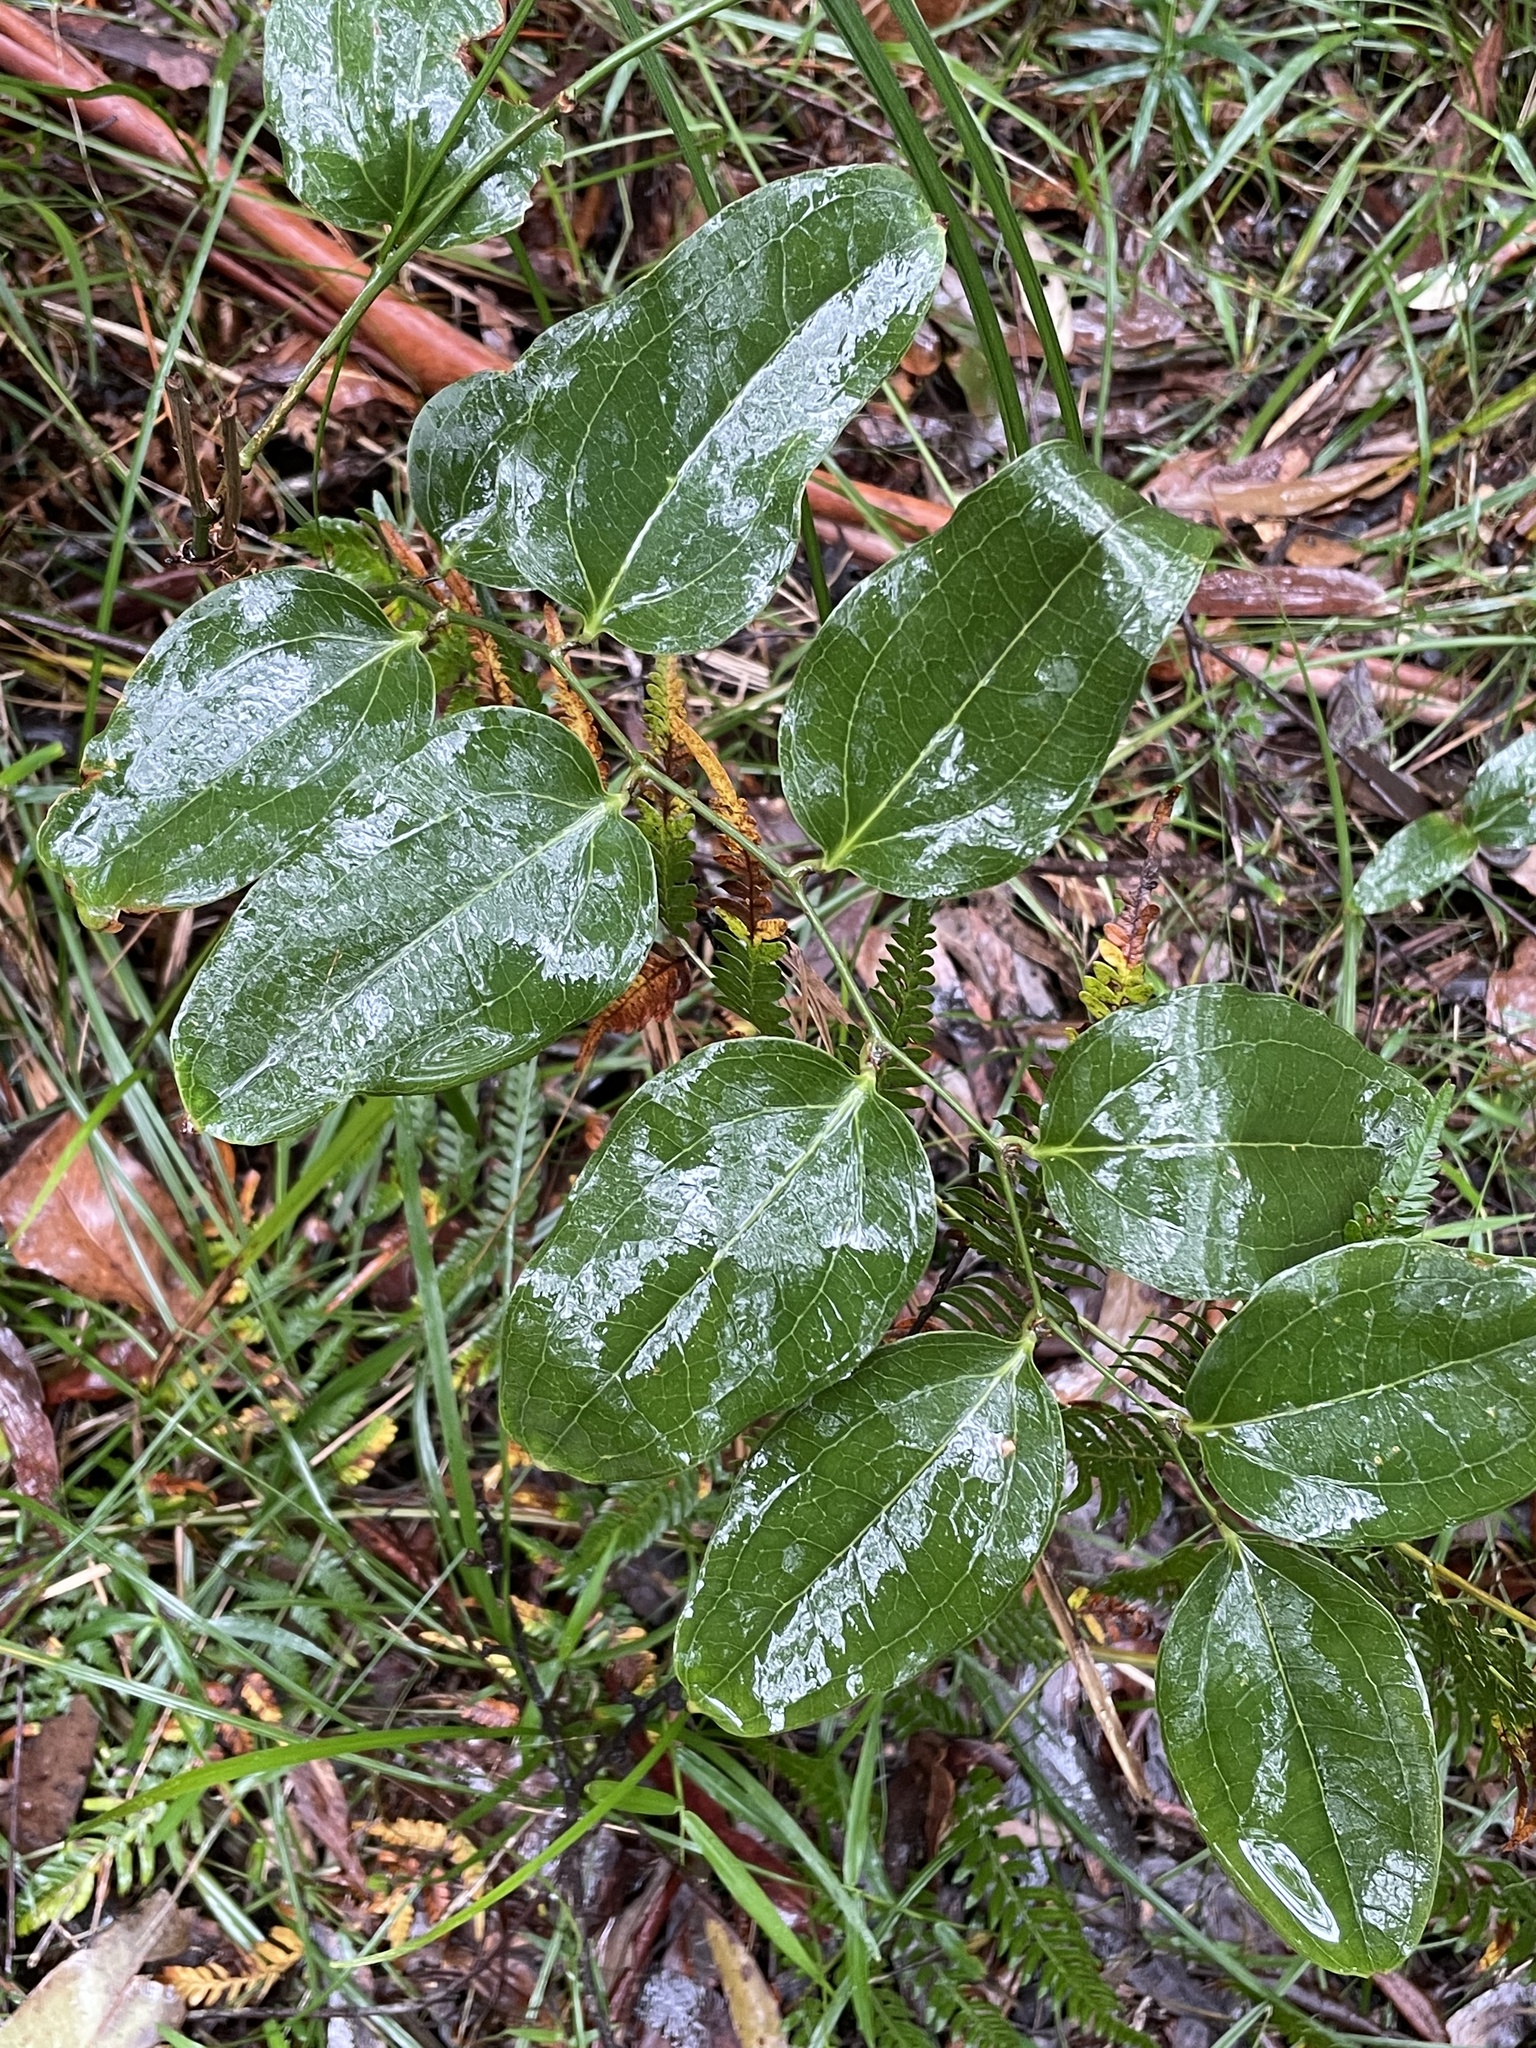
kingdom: Plantae
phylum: Tracheophyta
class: Liliopsida
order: Liliales
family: Smilacaceae
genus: Smilax
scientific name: Smilax australis
